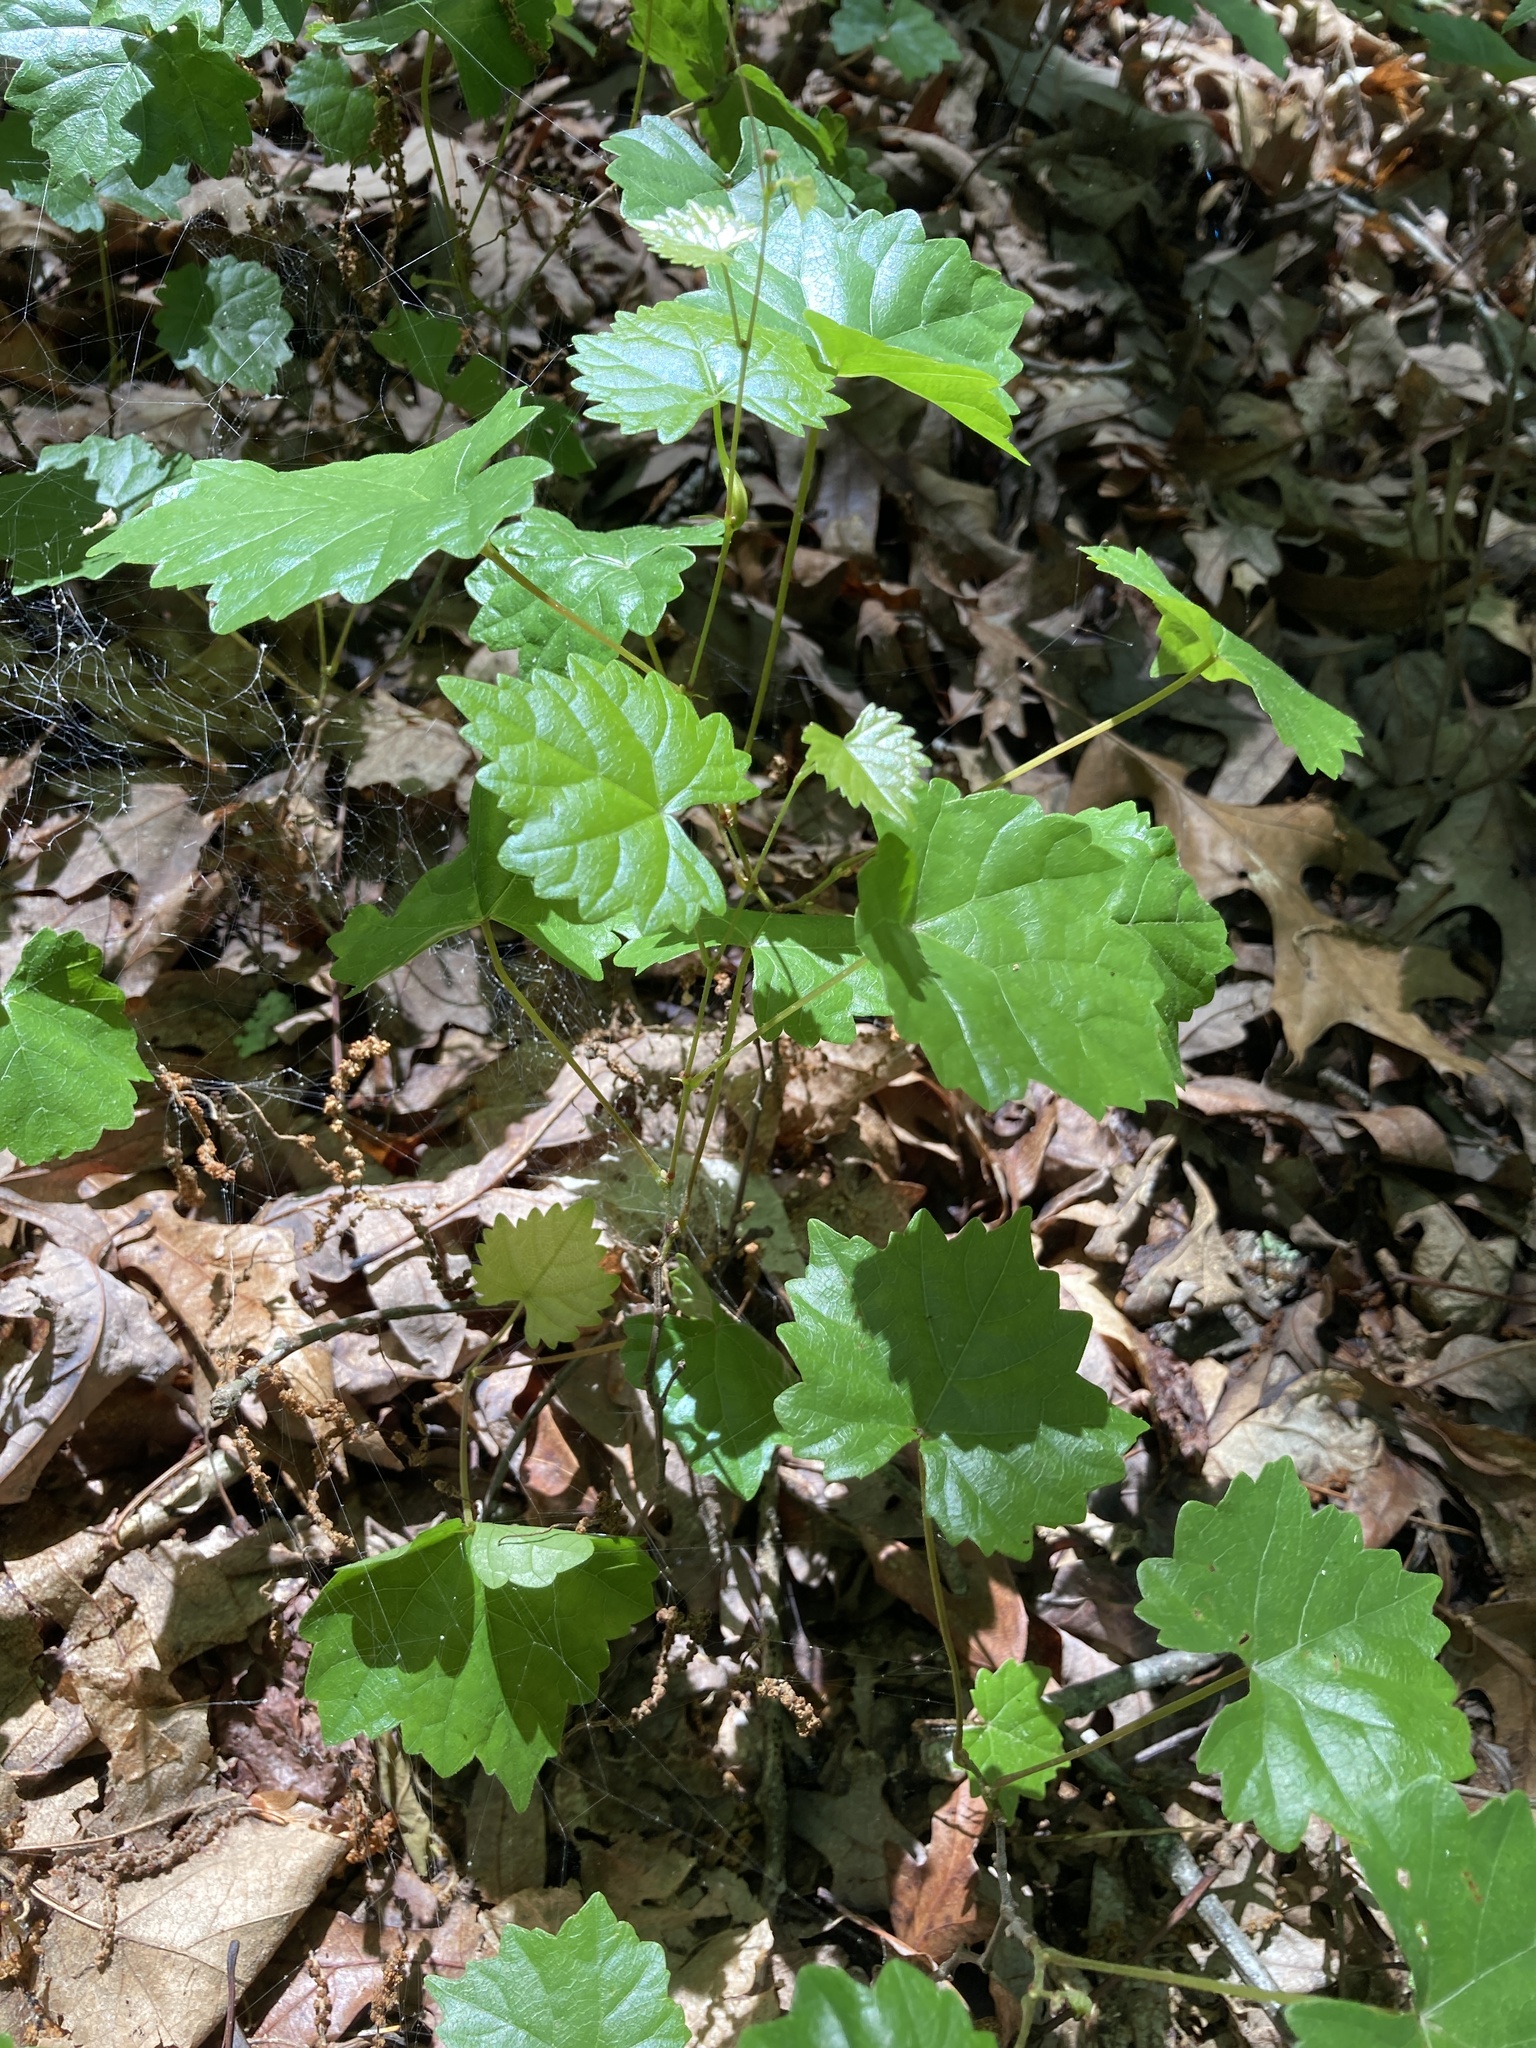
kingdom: Plantae
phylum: Tracheophyta
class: Magnoliopsida
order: Vitales
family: Vitaceae
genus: Vitis
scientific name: Vitis rotundifolia
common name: Muscadine grape
